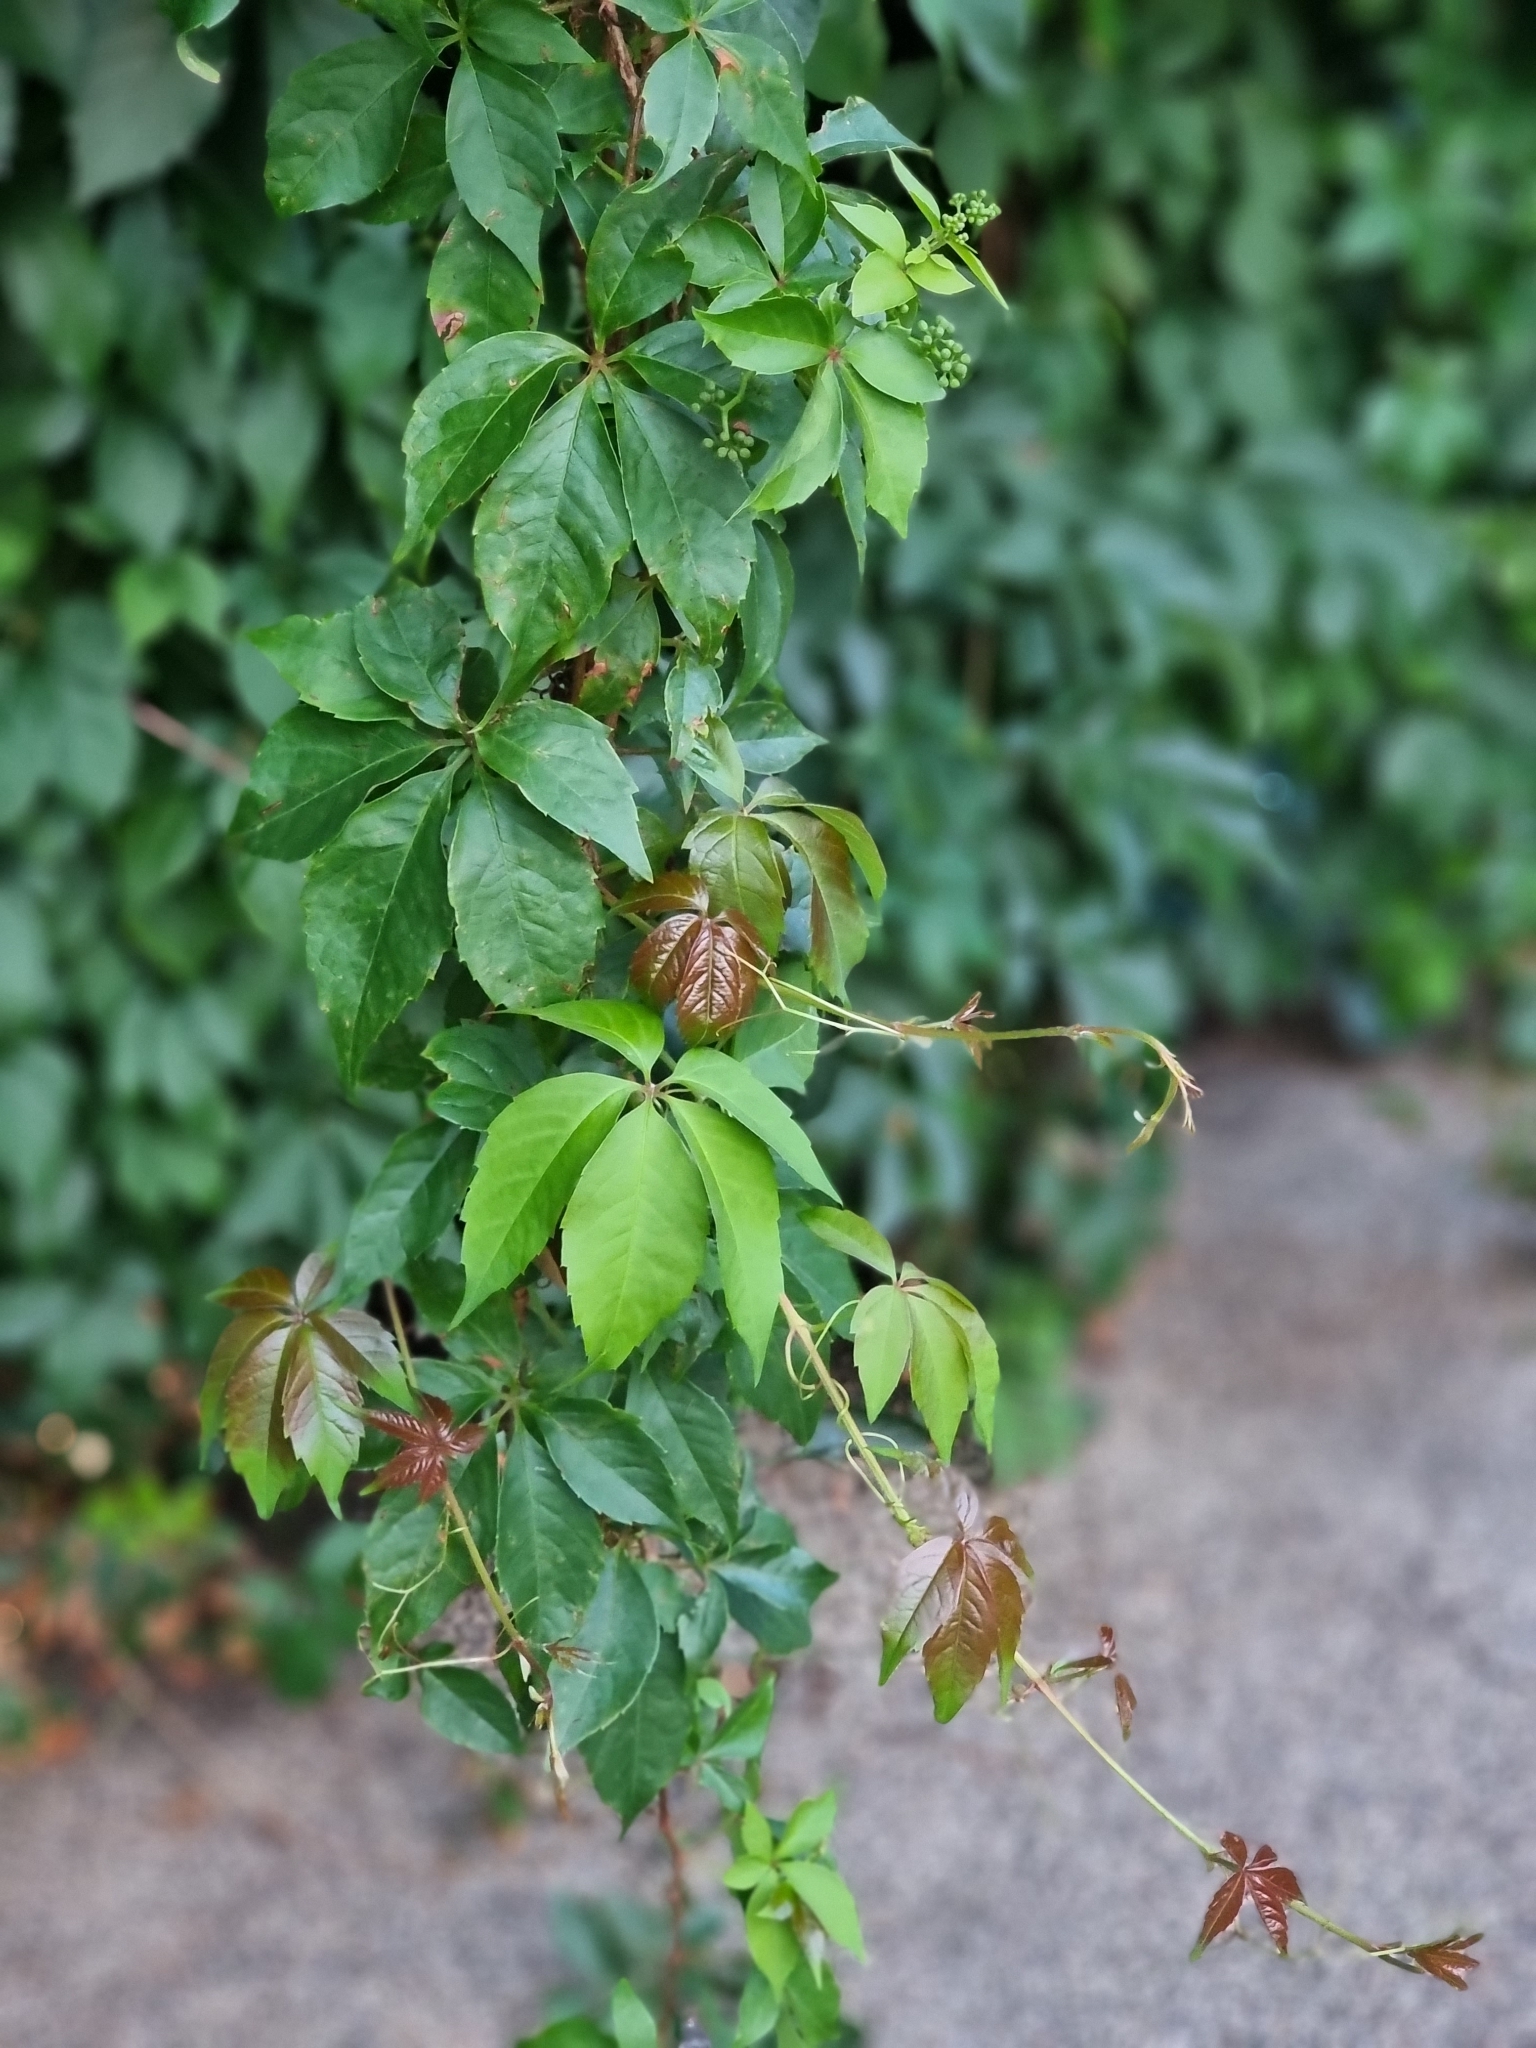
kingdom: Plantae
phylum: Tracheophyta
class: Magnoliopsida
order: Vitales
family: Vitaceae
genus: Parthenocissus
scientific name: Parthenocissus quinquefolia
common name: Virginia-creeper
